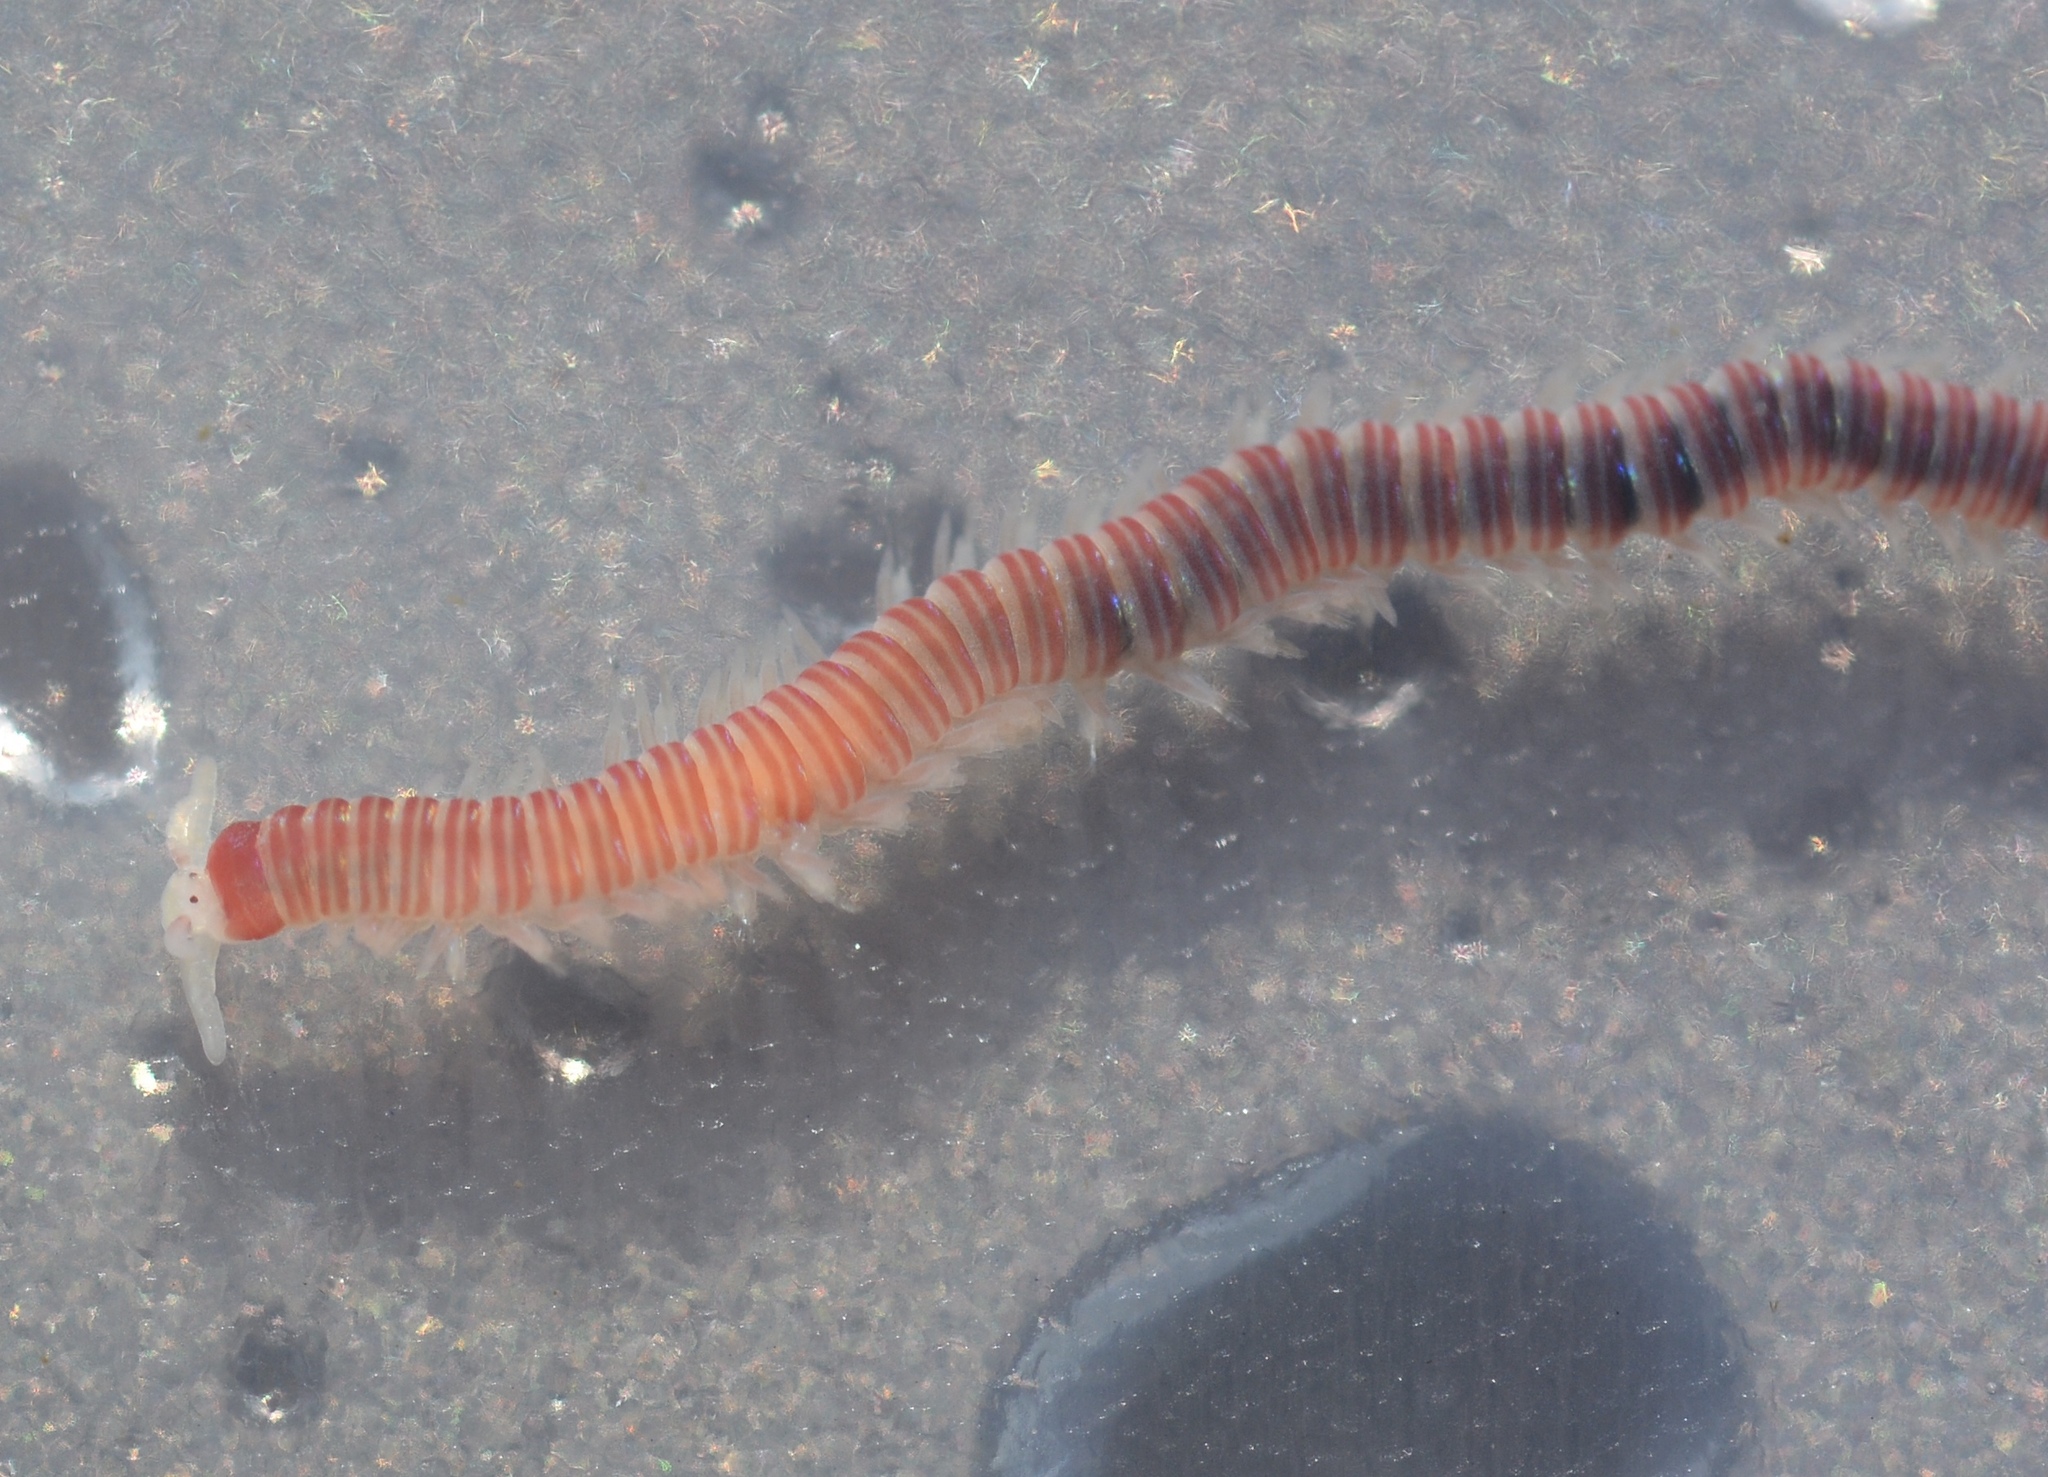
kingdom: Animalia
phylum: Annelida
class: Polychaeta
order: Eunicida
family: Dorvilleidae
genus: Dorvillea
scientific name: Dorvillea moniloceras
